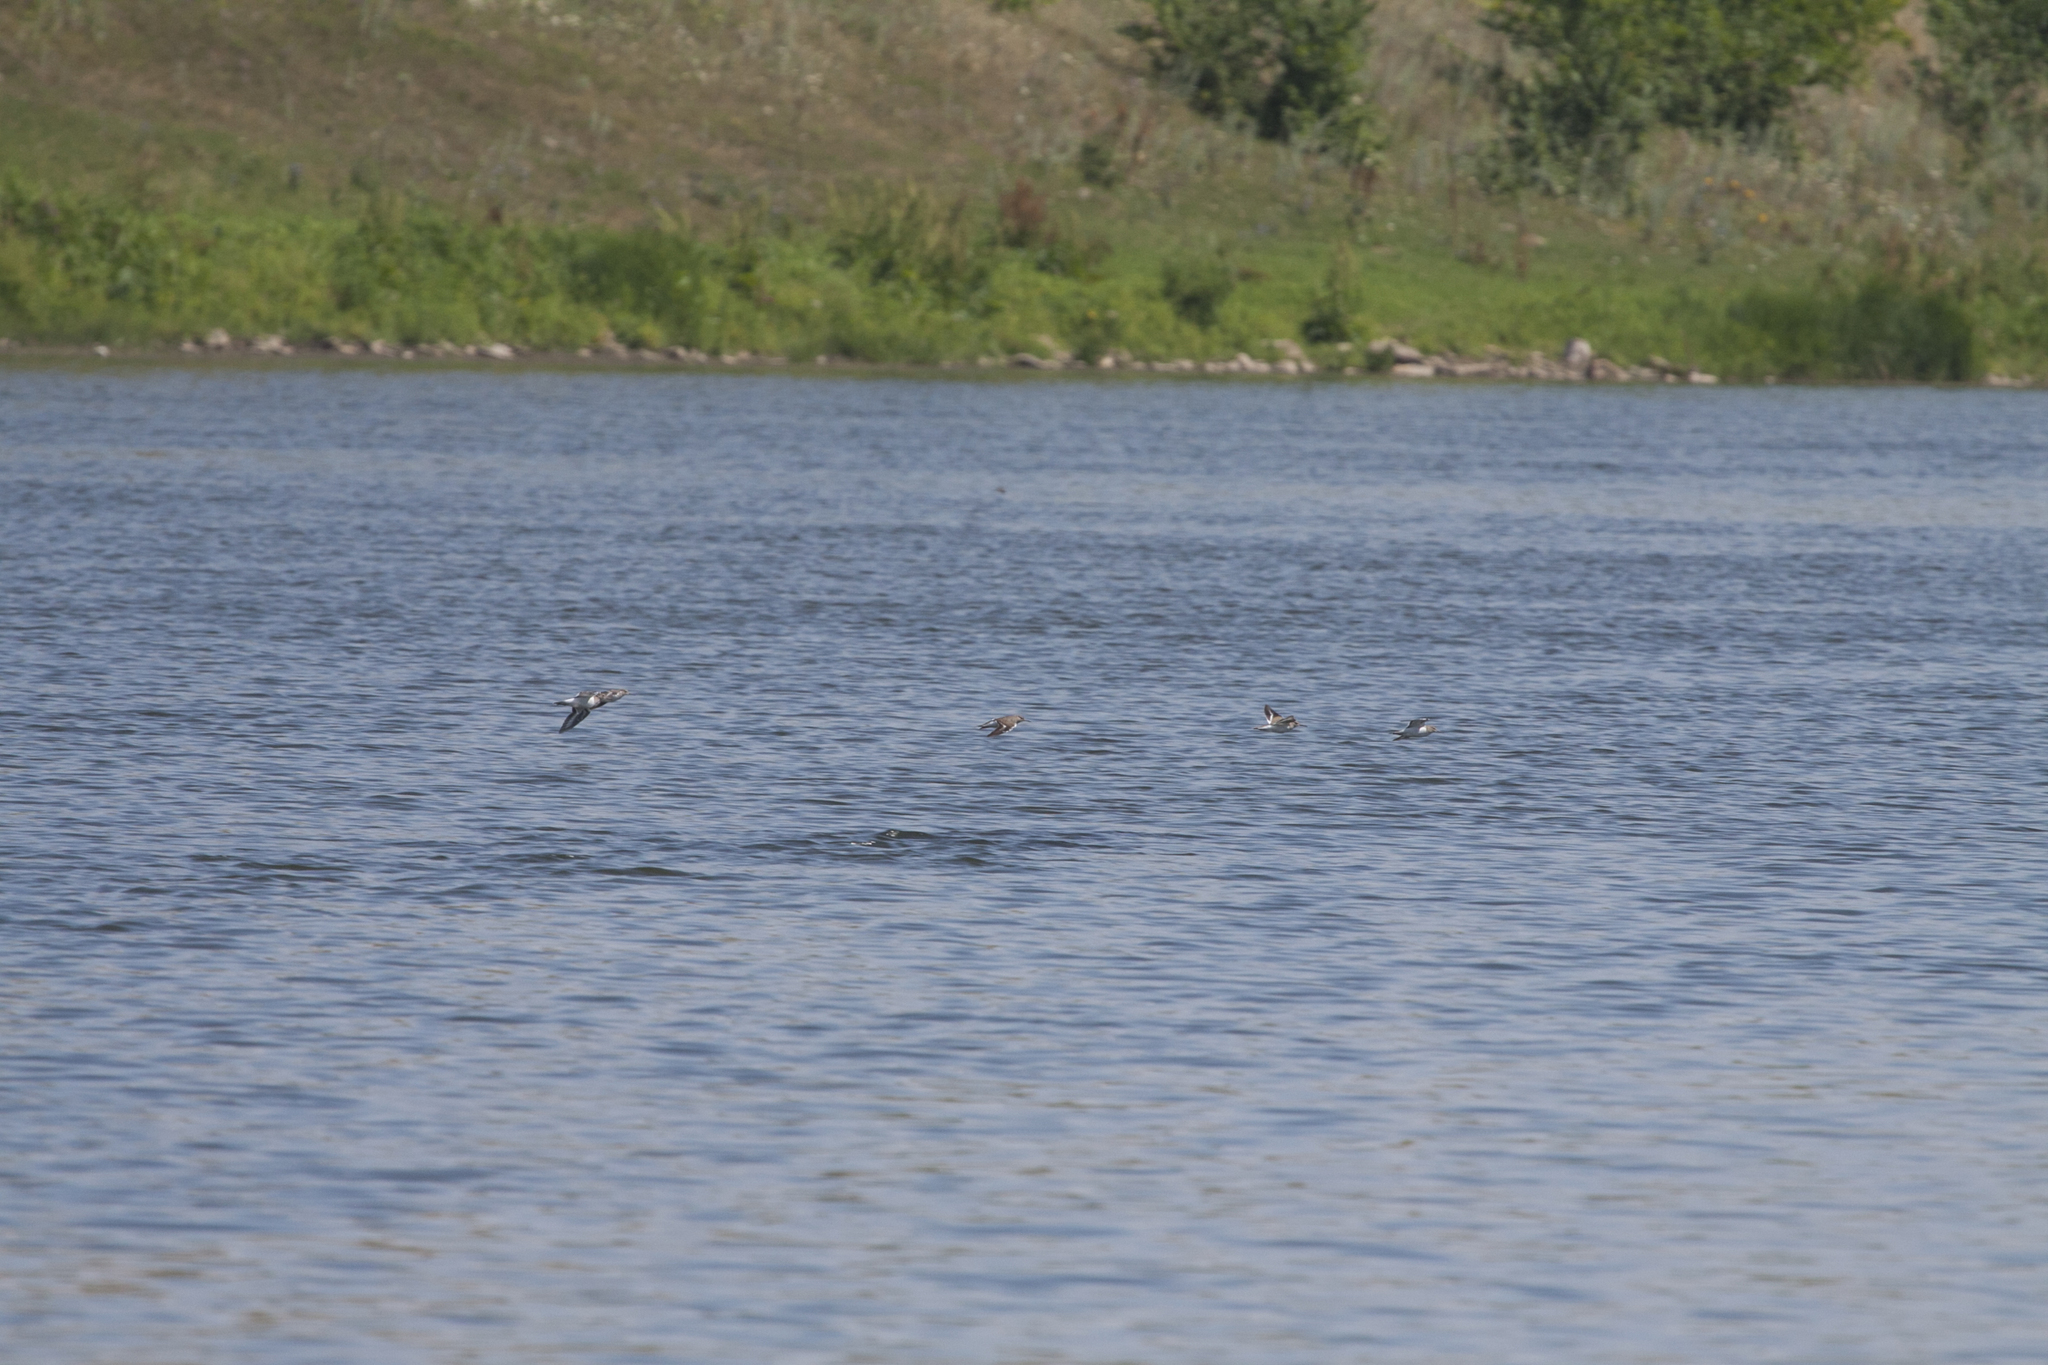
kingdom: Animalia
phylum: Chordata
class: Aves
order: Charadriiformes
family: Scolopacidae
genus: Actitis
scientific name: Actitis hypoleucos
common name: Common sandpiper
